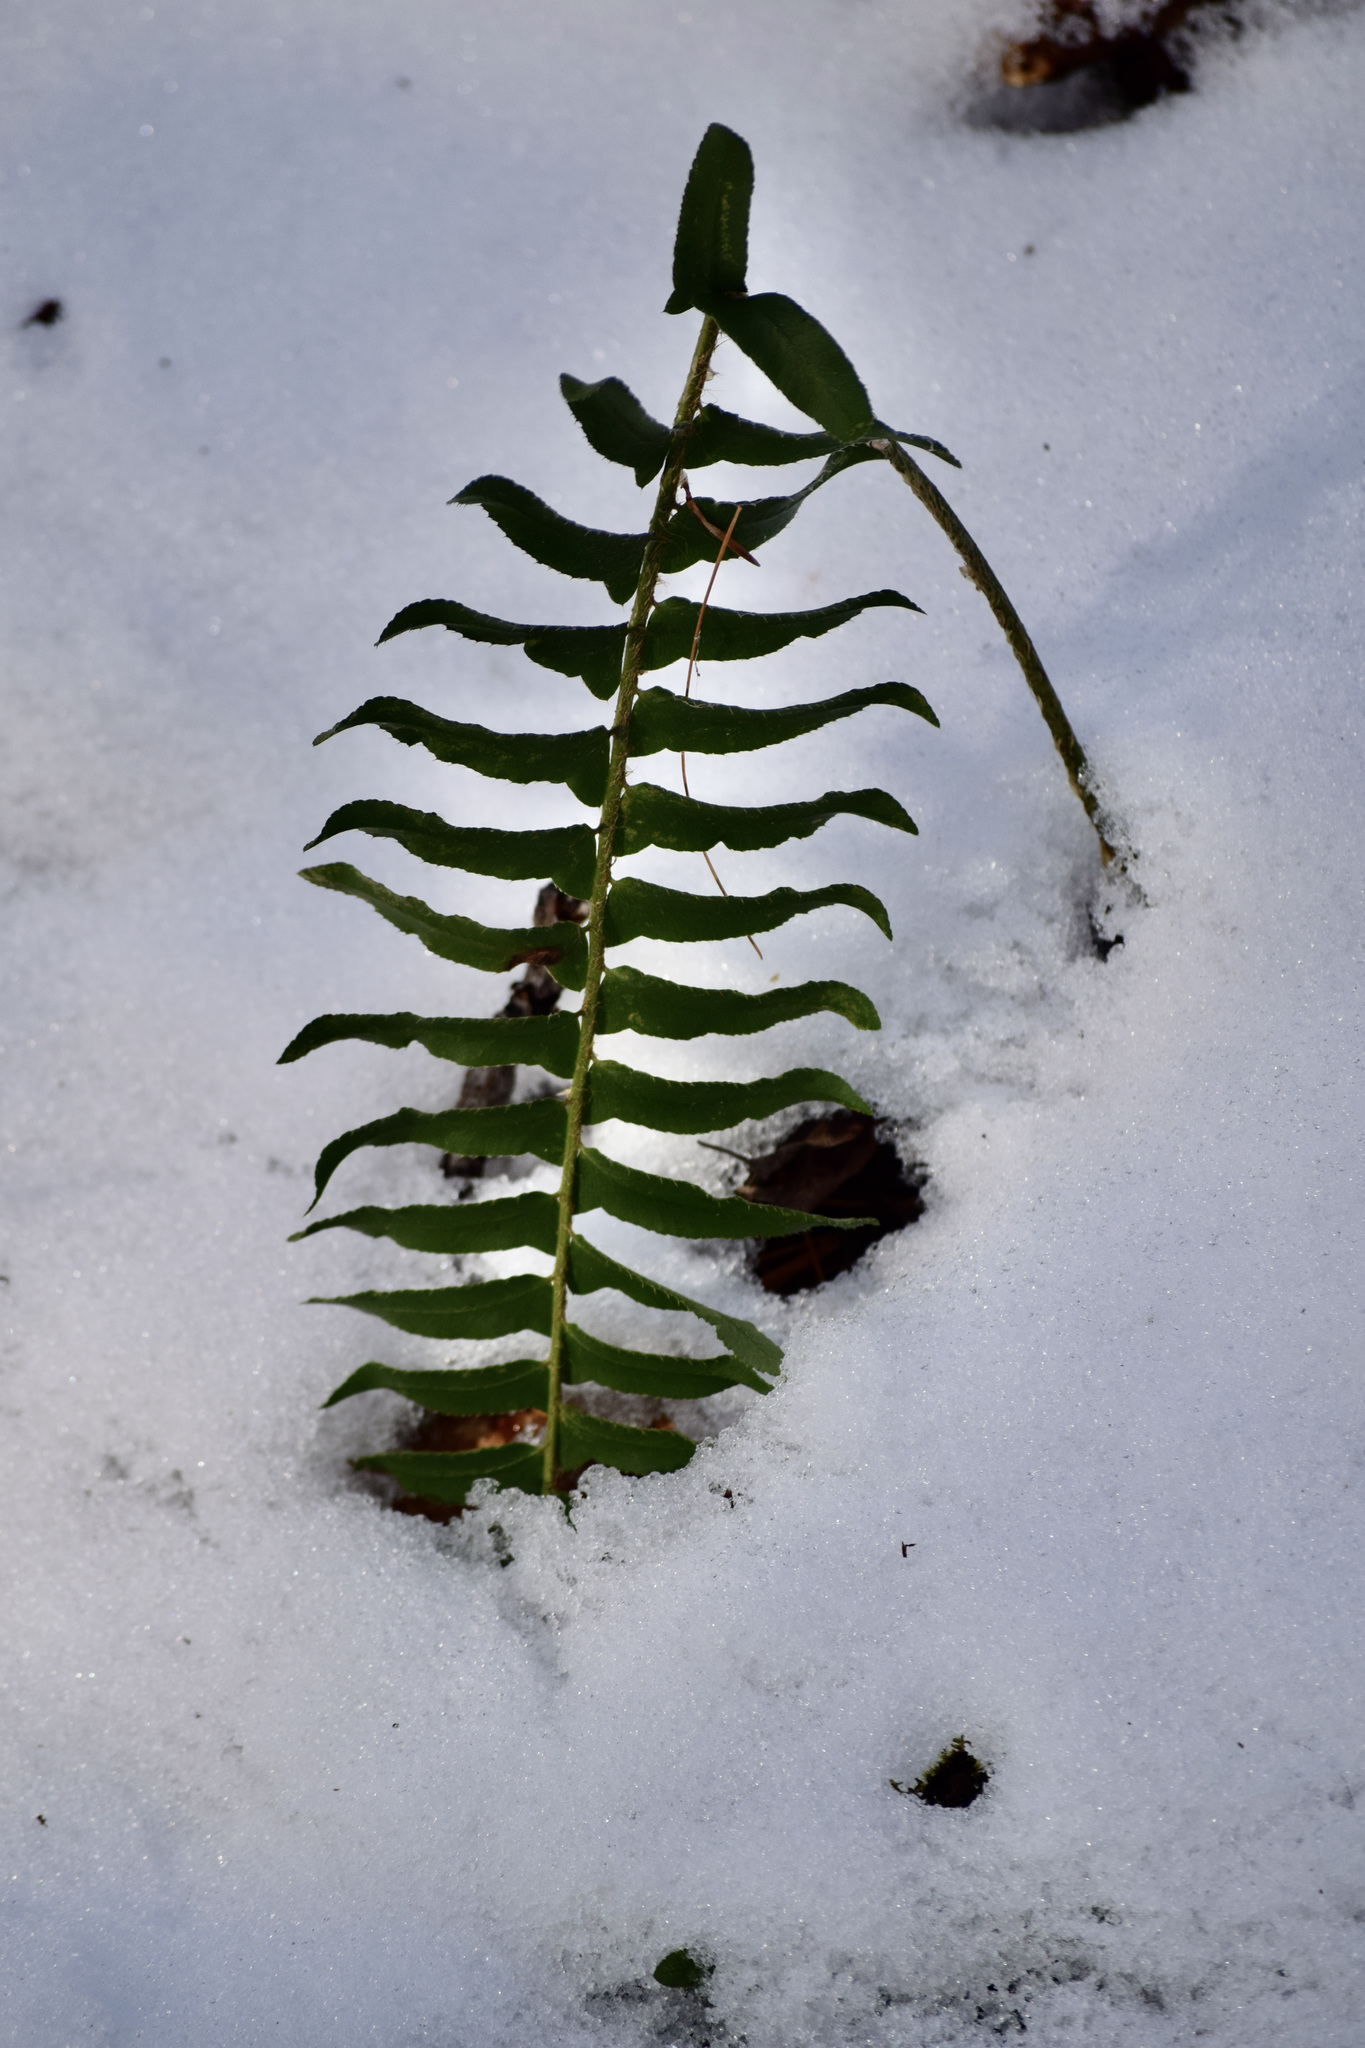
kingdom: Plantae
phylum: Tracheophyta
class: Polypodiopsida
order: Polypodiales
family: Dryopteridaceae
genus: Polystichum
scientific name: Polystichum acrostichoides
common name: Christmas fern
